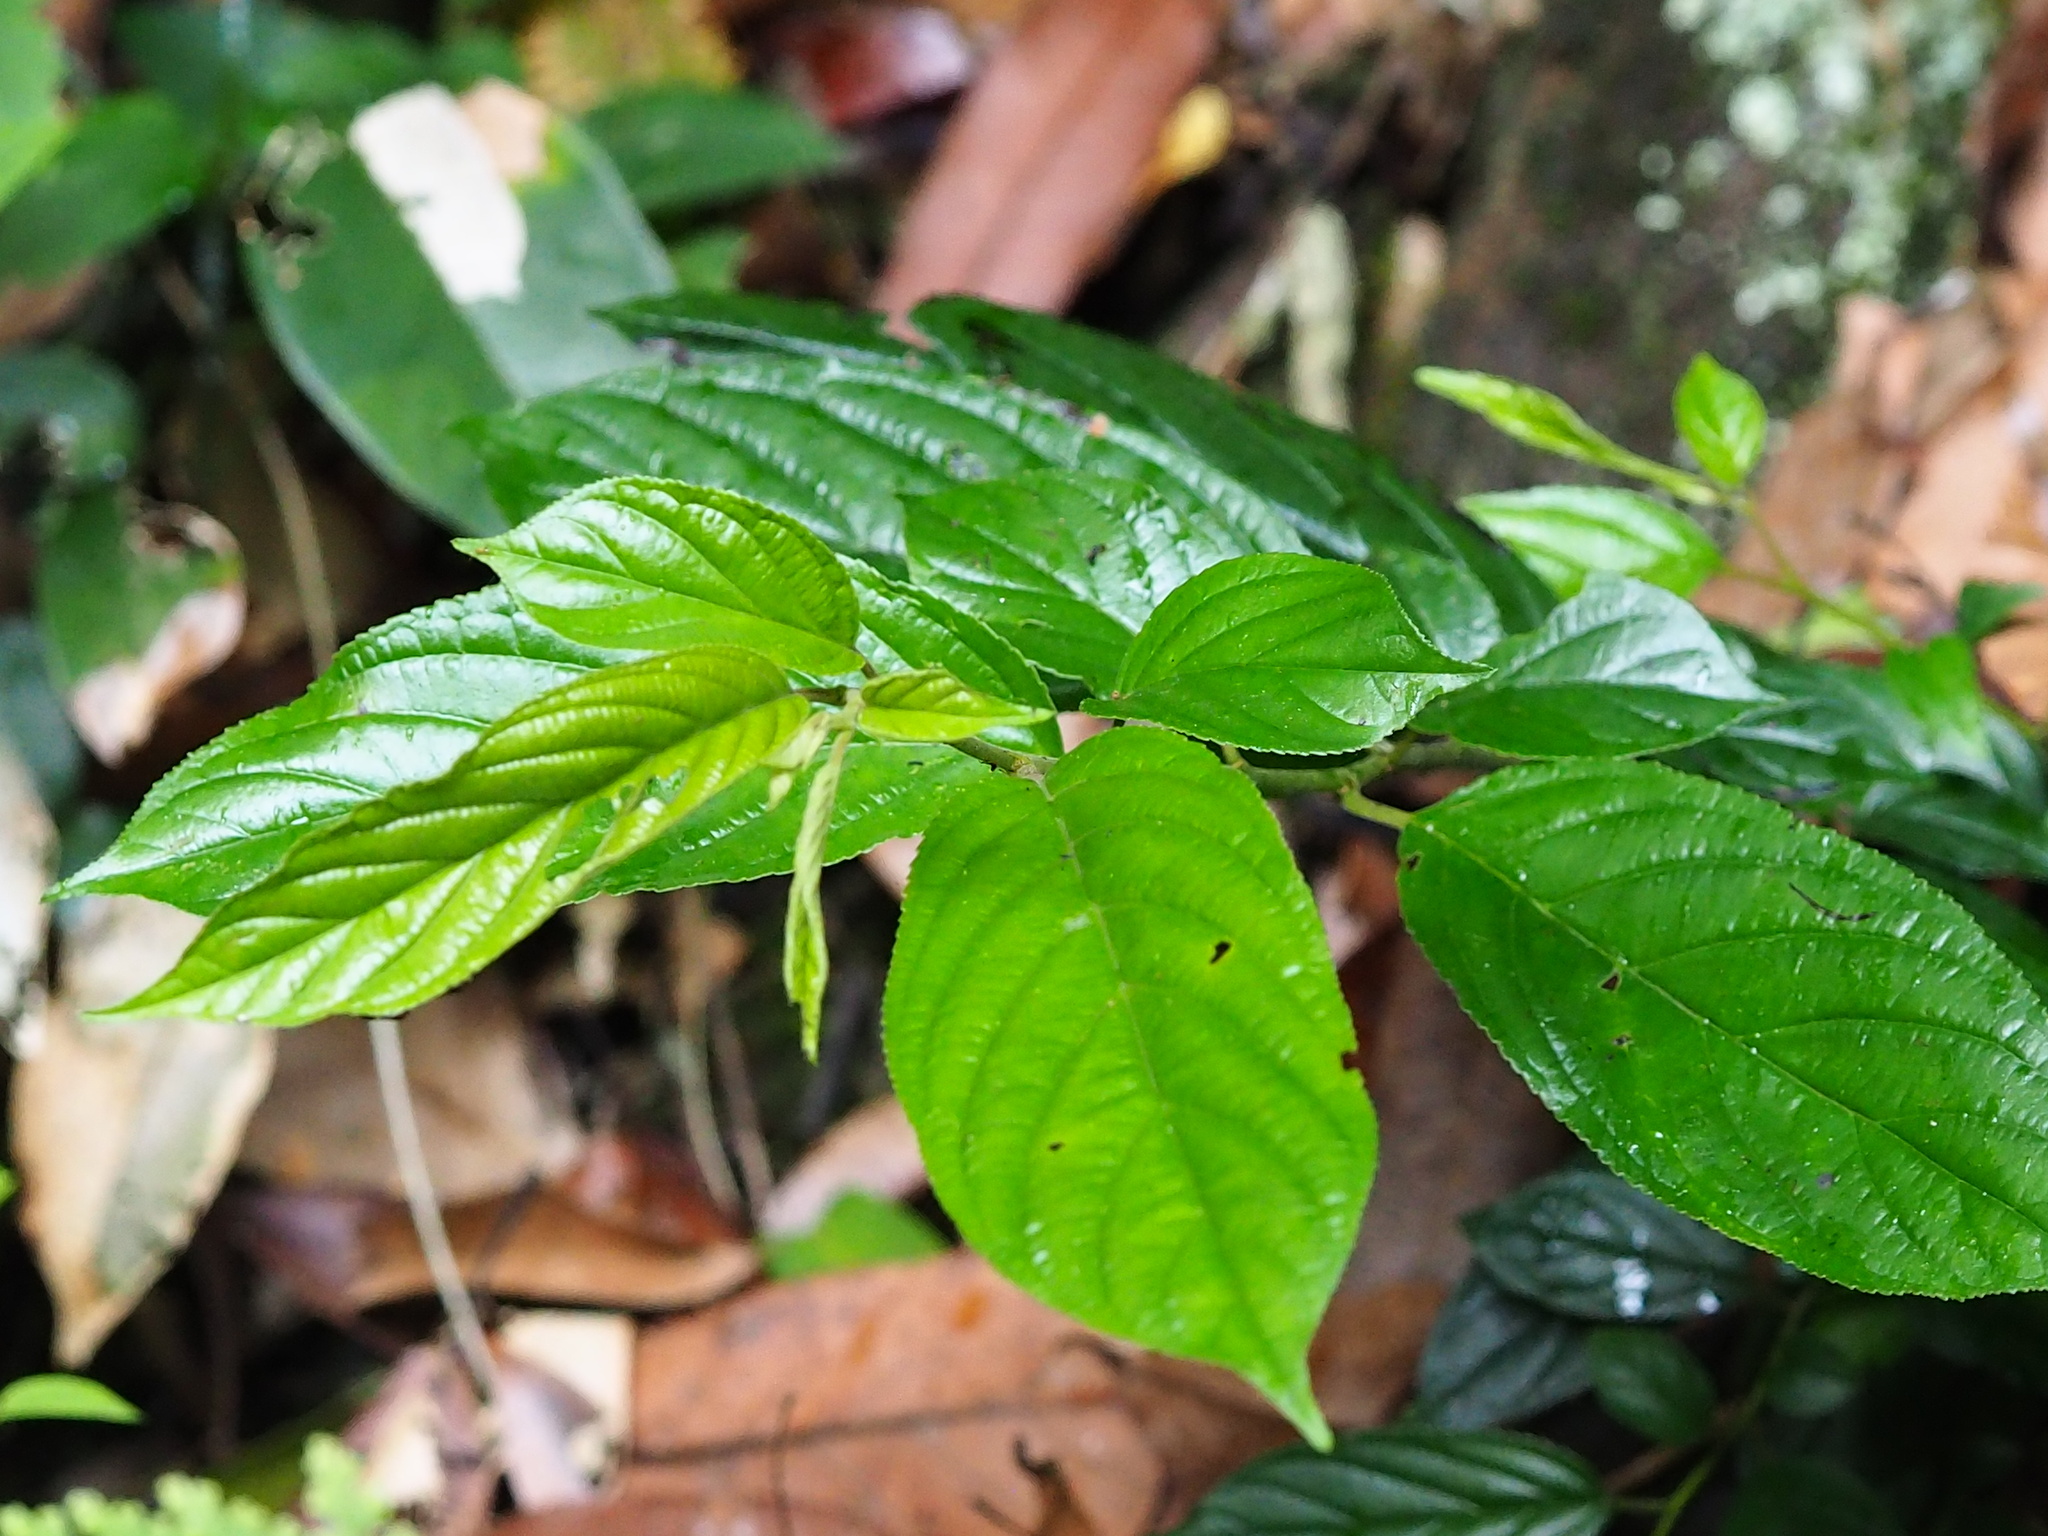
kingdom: Plantae
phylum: Tracheophyta
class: Magnoliopsida
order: Rosales
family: Rhamnaceae
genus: Rhamnus
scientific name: Rhamnus formosana
